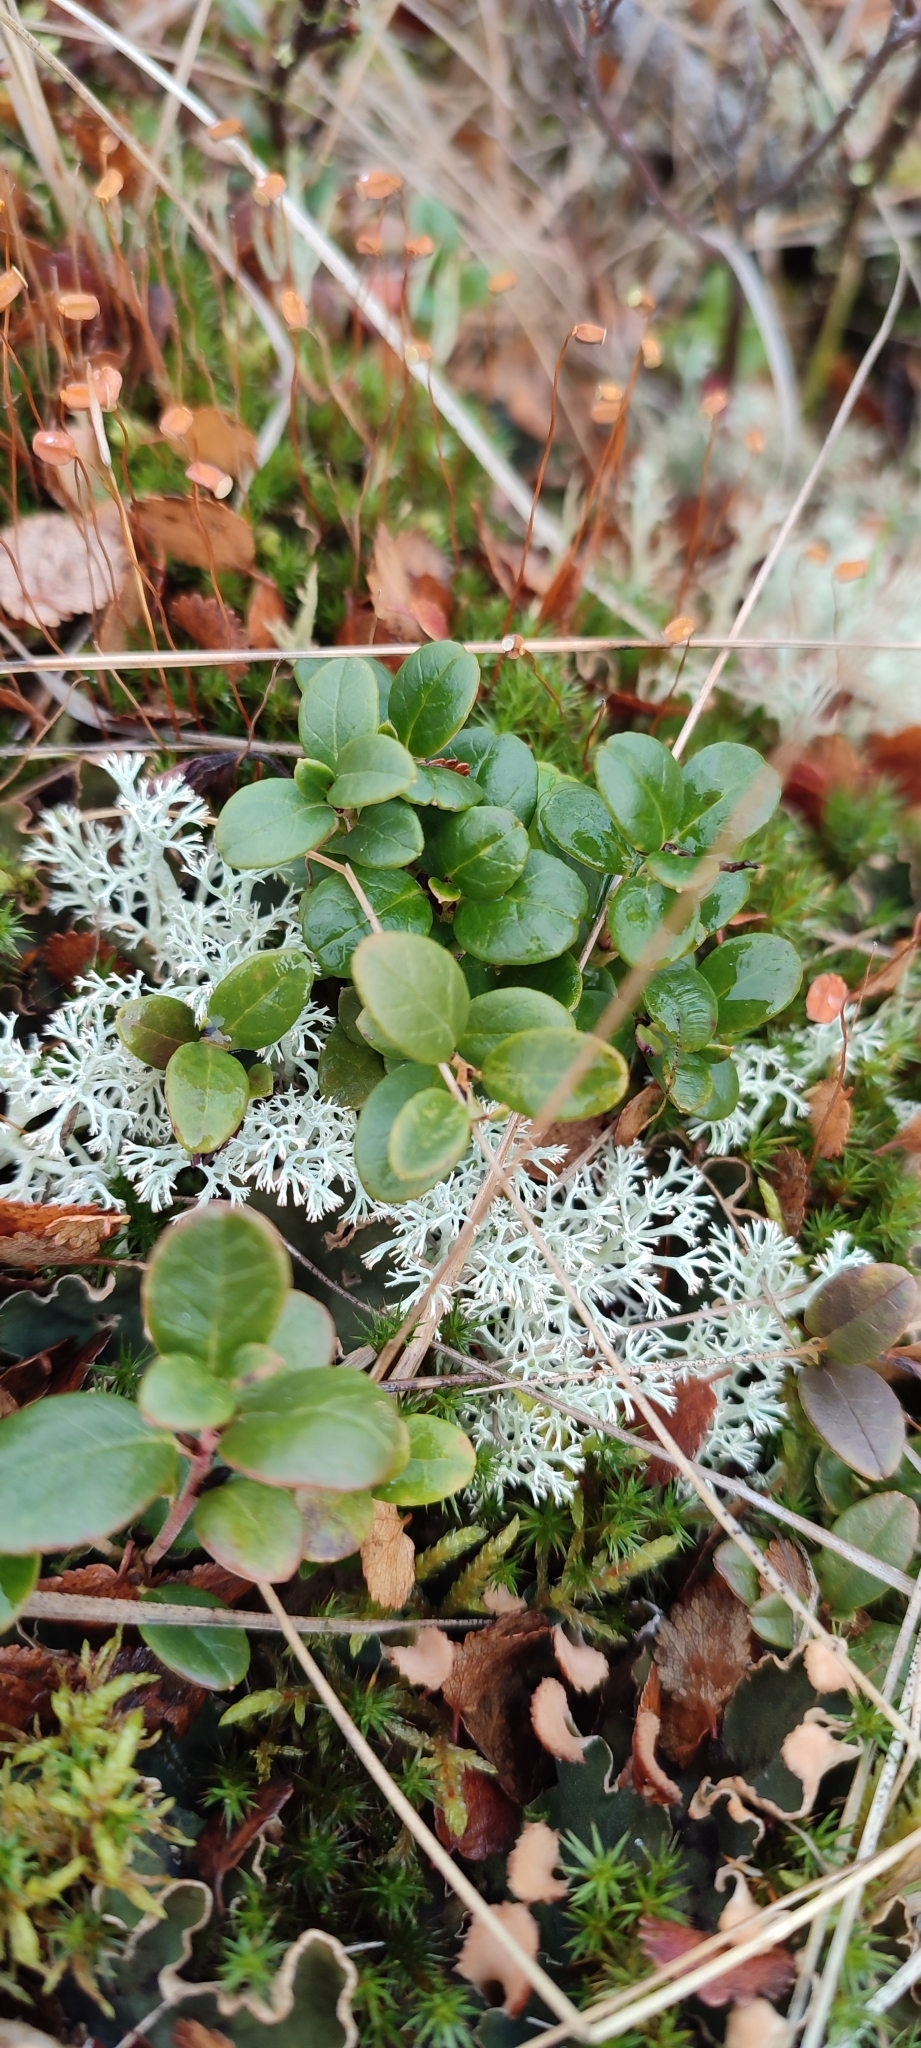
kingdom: Plantae
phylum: Tracheophyta
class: Magnoliopsida
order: Ericales
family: Ericaceae
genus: Vaccinium
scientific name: Vaccinium vitis-idaea
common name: Cowberry
